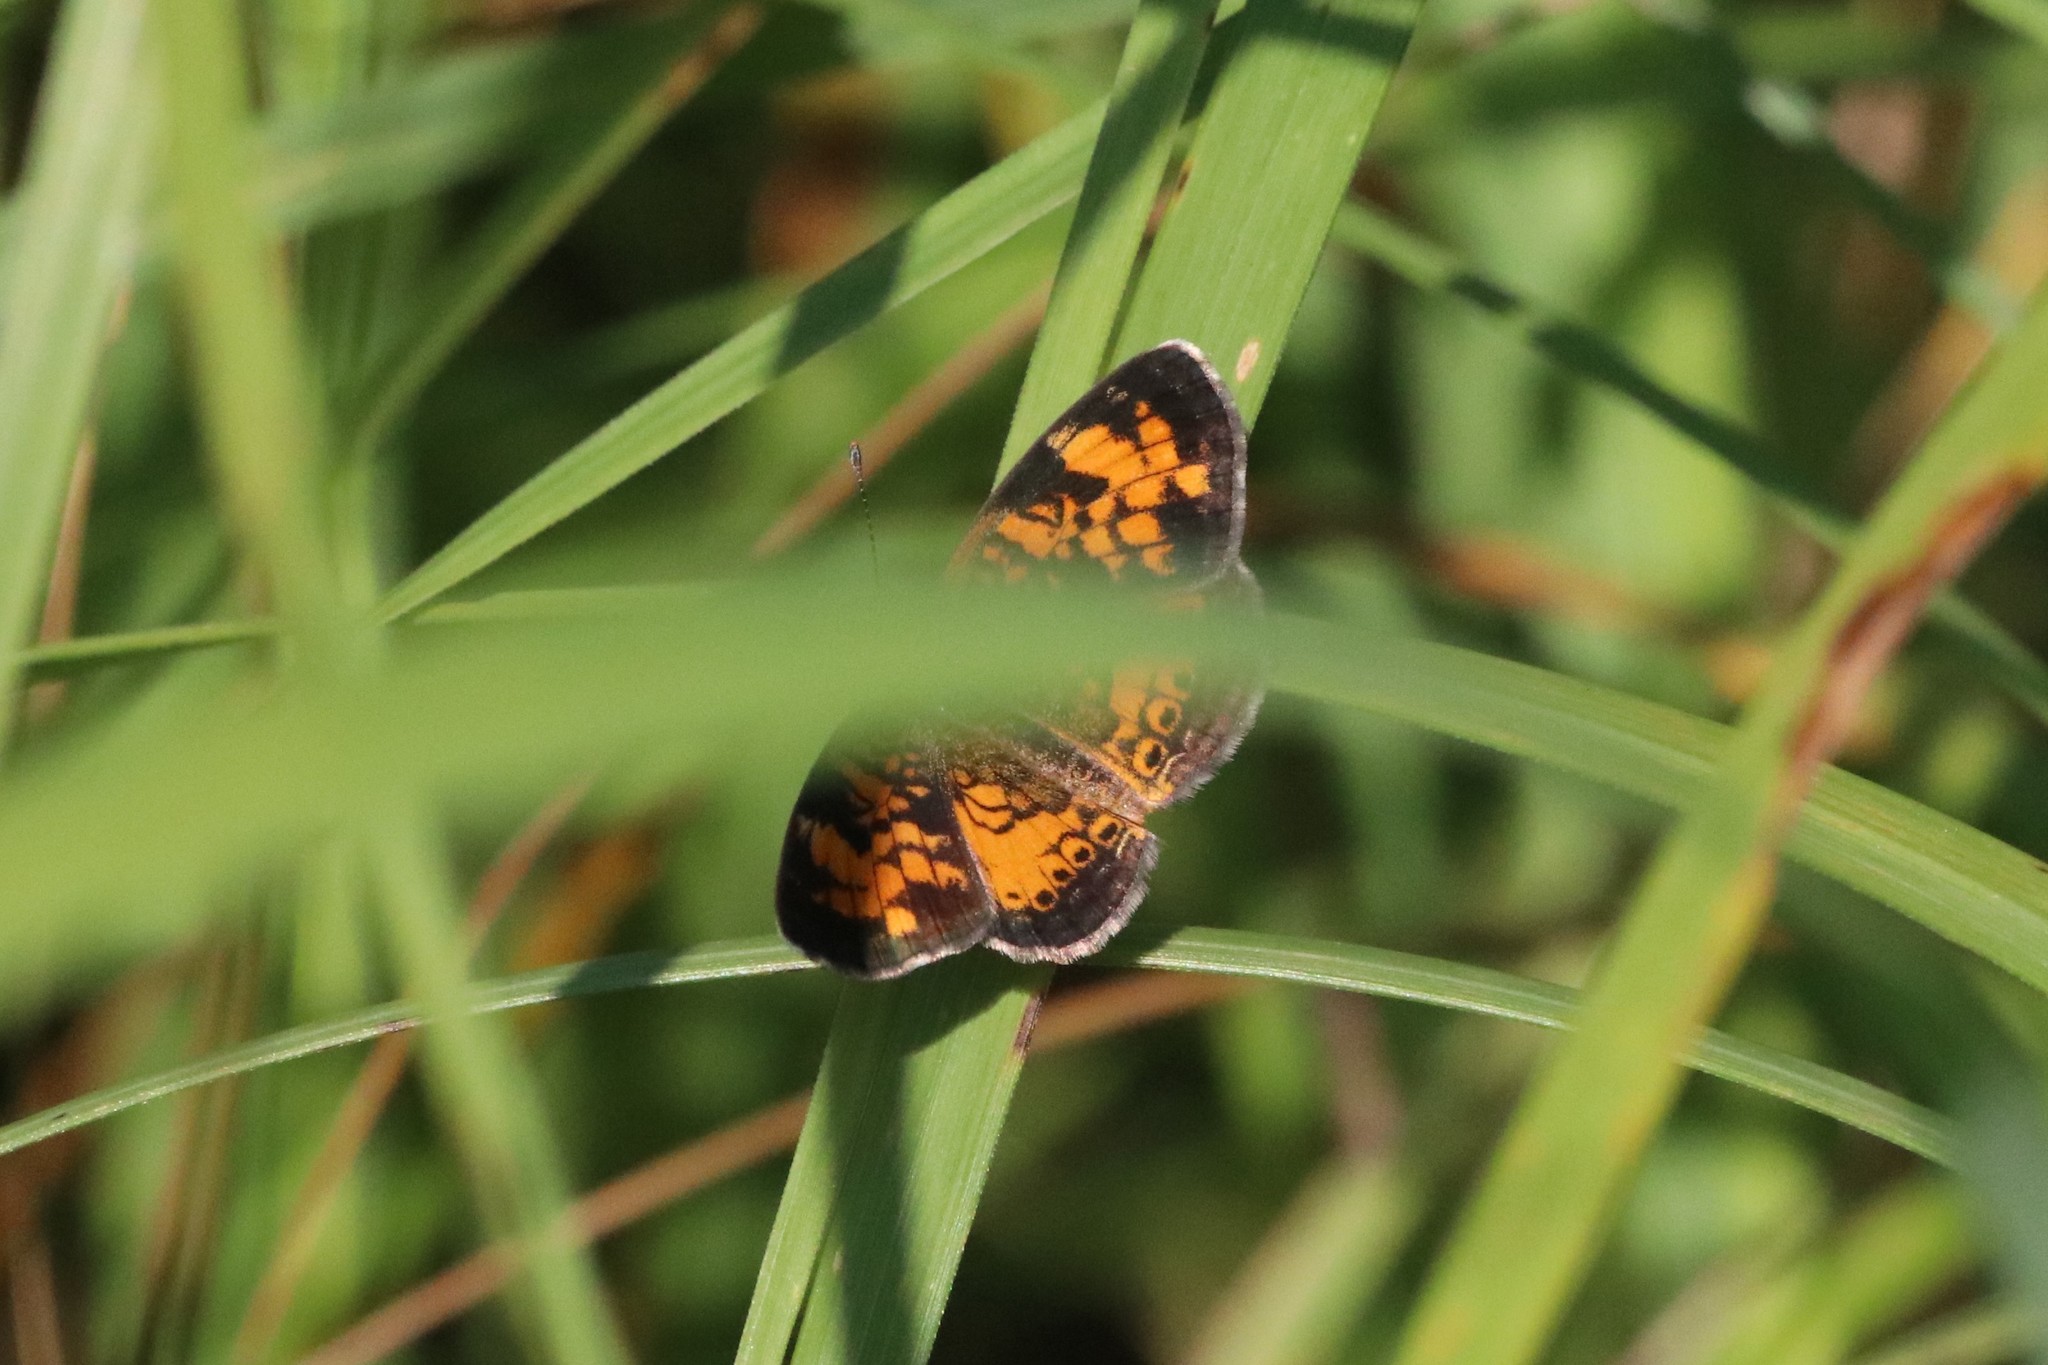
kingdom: Animalia
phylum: Arthropoda
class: Insecta
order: Lepidoptera
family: Nymphalidae
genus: Phyciodes
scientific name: Phyciodes tharos
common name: Pearl crescent
